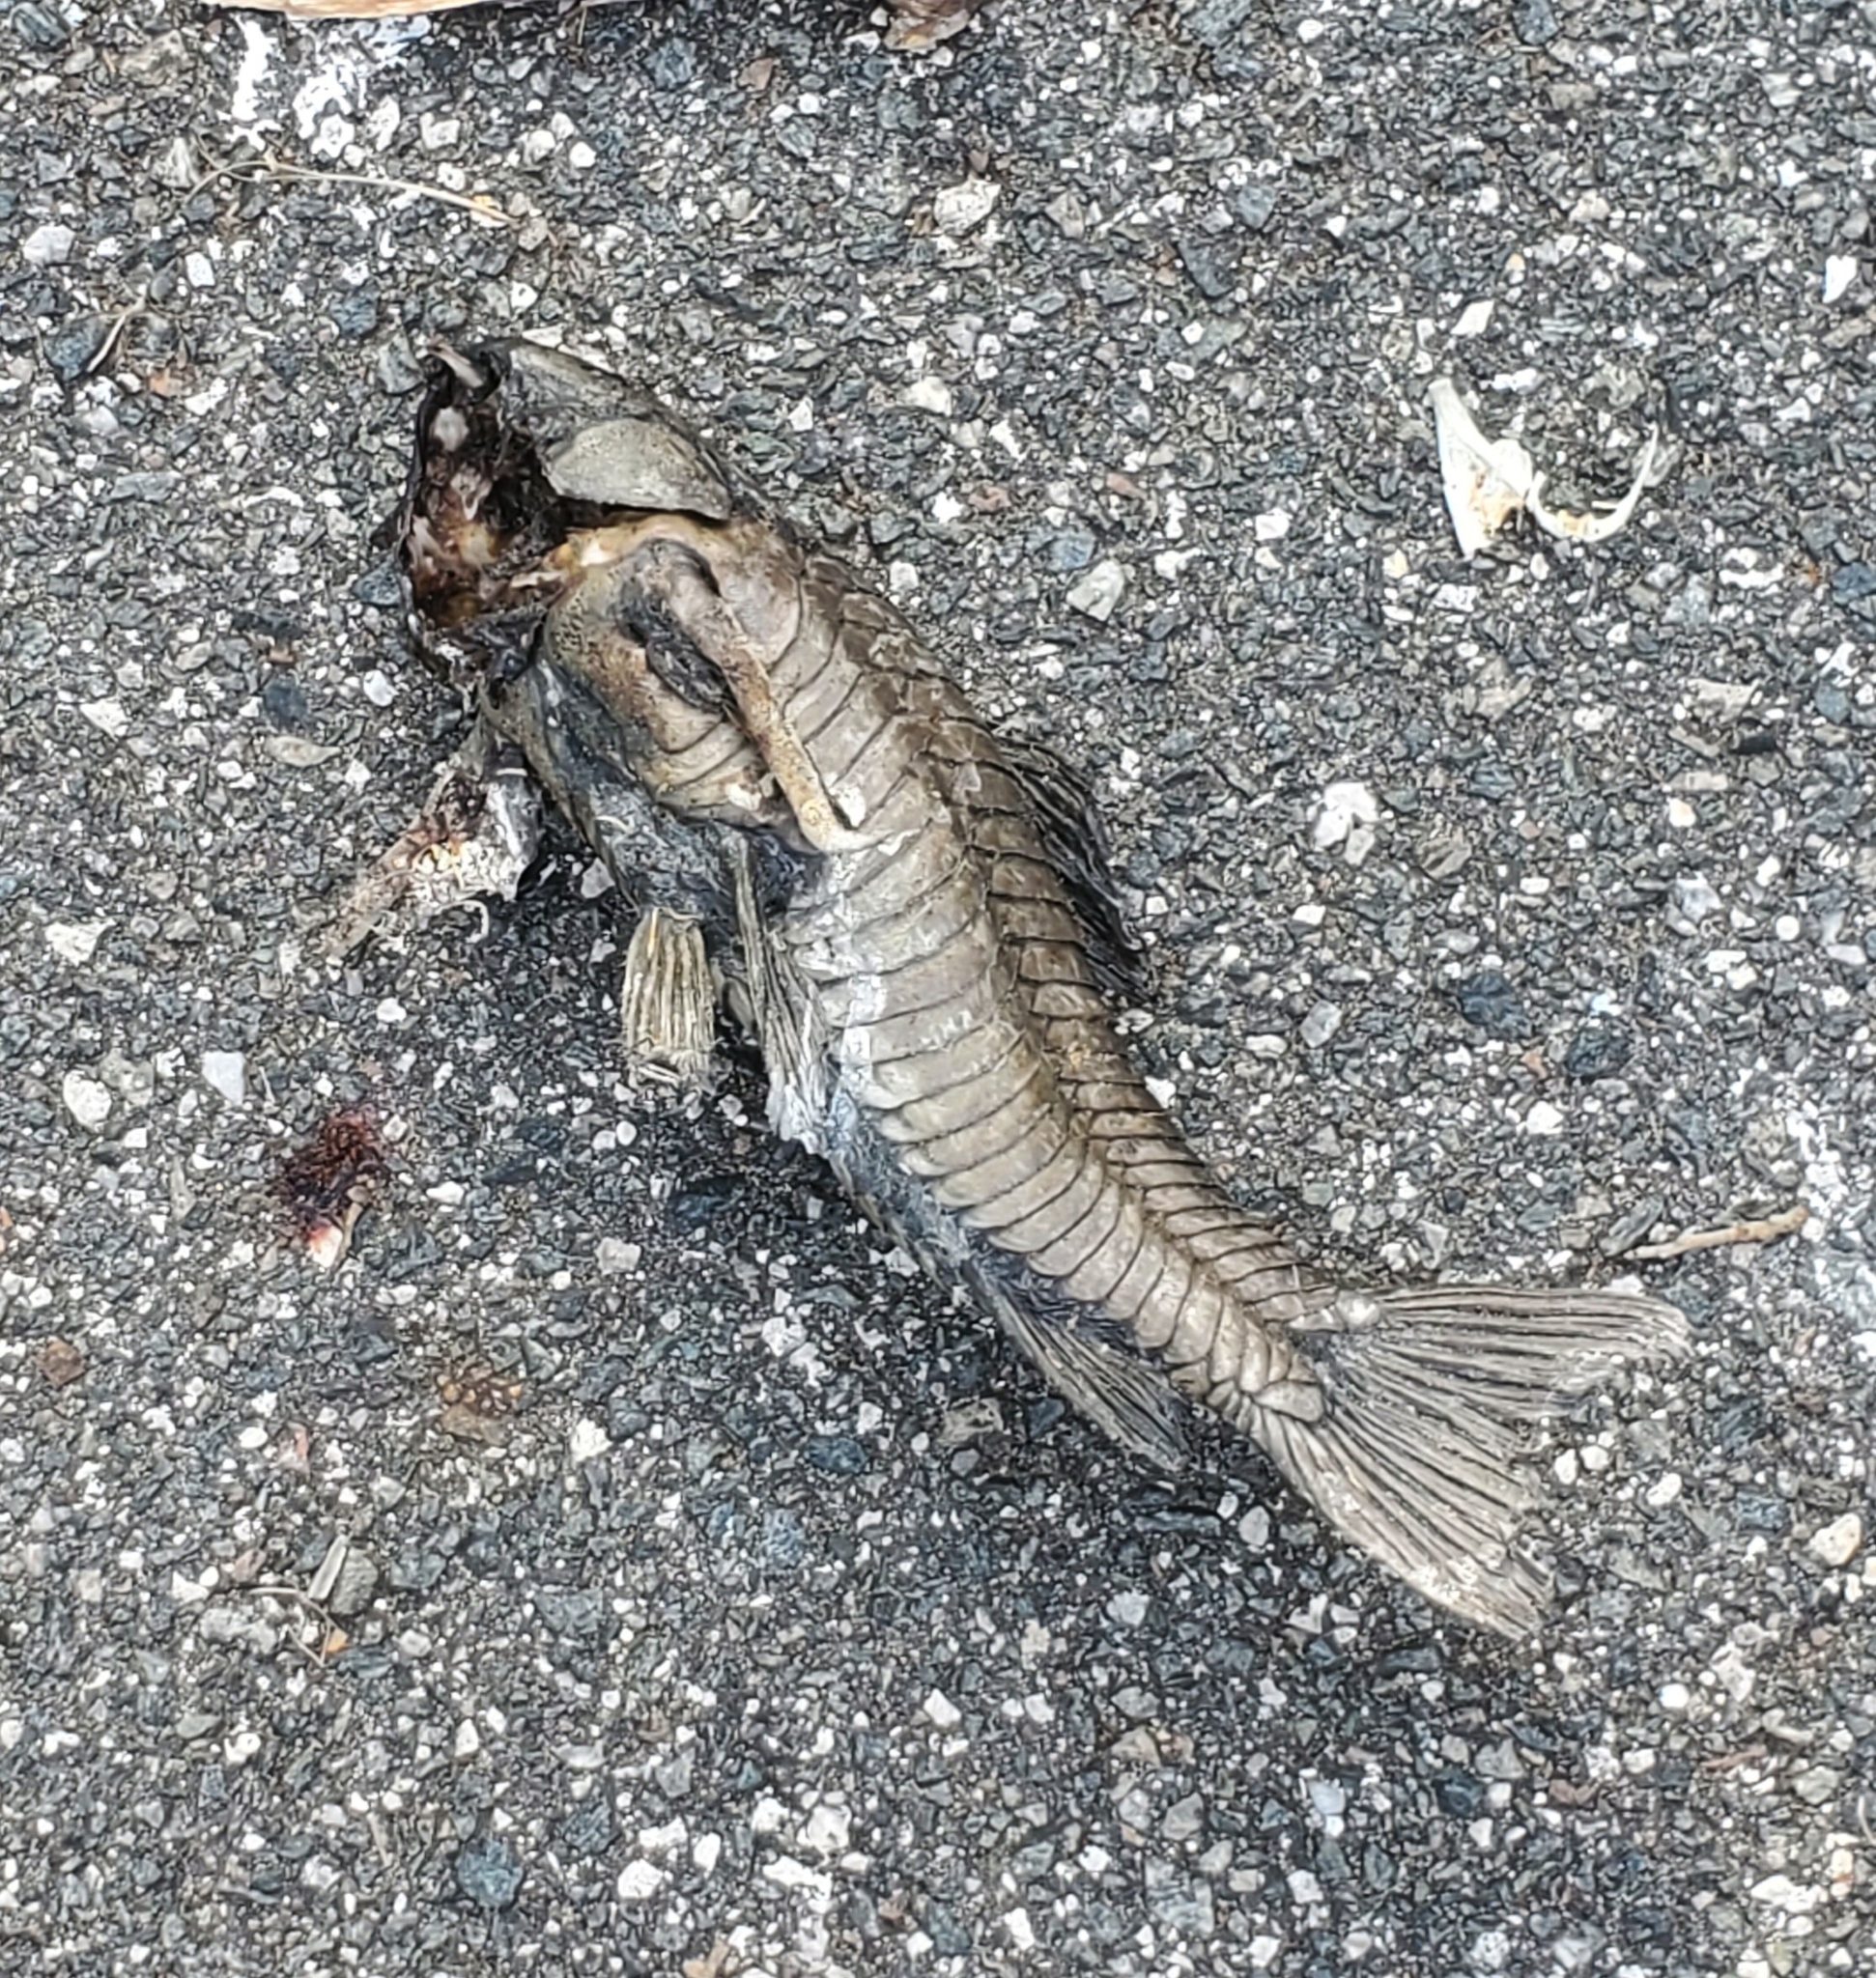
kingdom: Animalia
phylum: Chordata
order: Siluriformes
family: Callichthyidae
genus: Hoplosternum
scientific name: Hoplosternum littorale
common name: Brown hoplo
